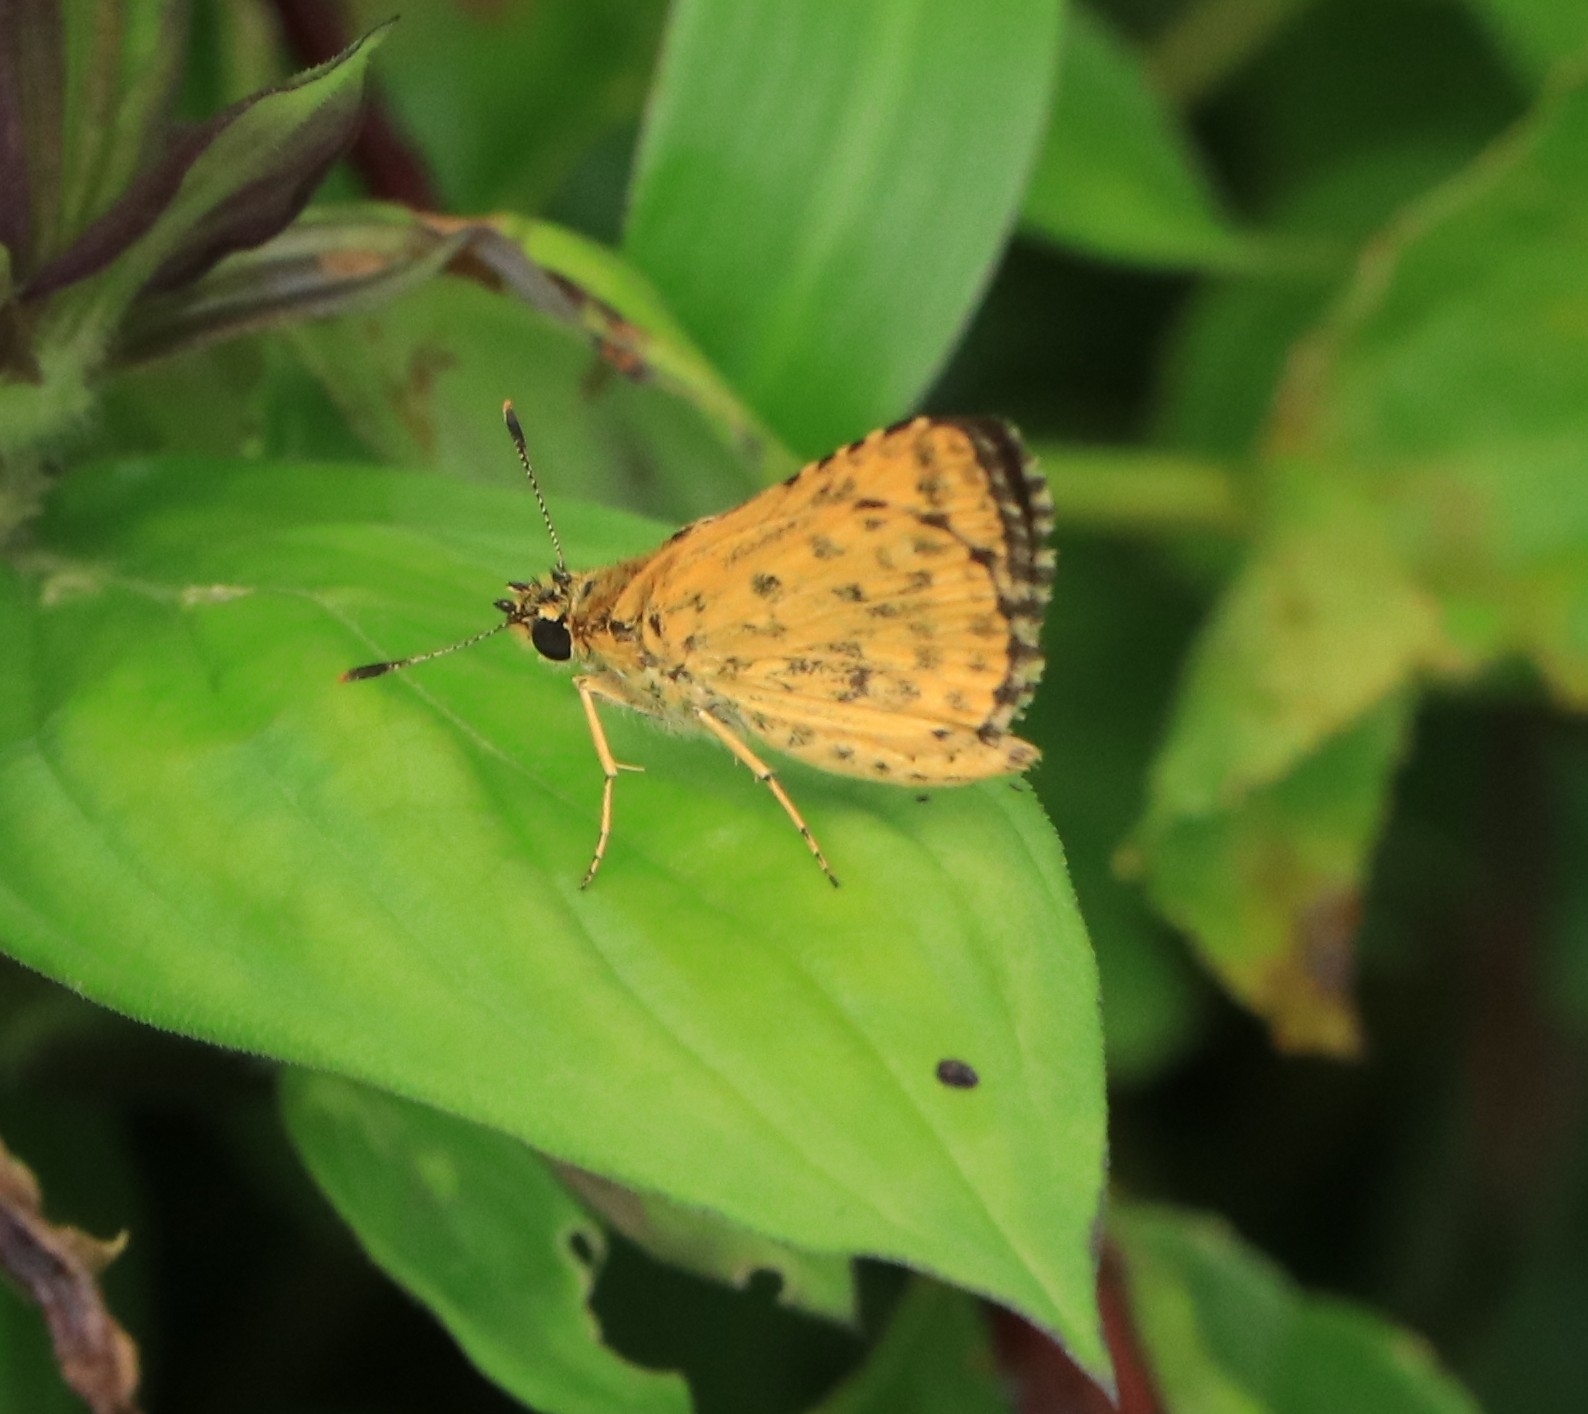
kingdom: Animalia
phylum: Arthropoda
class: Insecta
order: Lepidoptera
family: Hesperiidae
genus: Ampittia
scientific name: Ampittia dioscorides
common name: Common bush hopper
